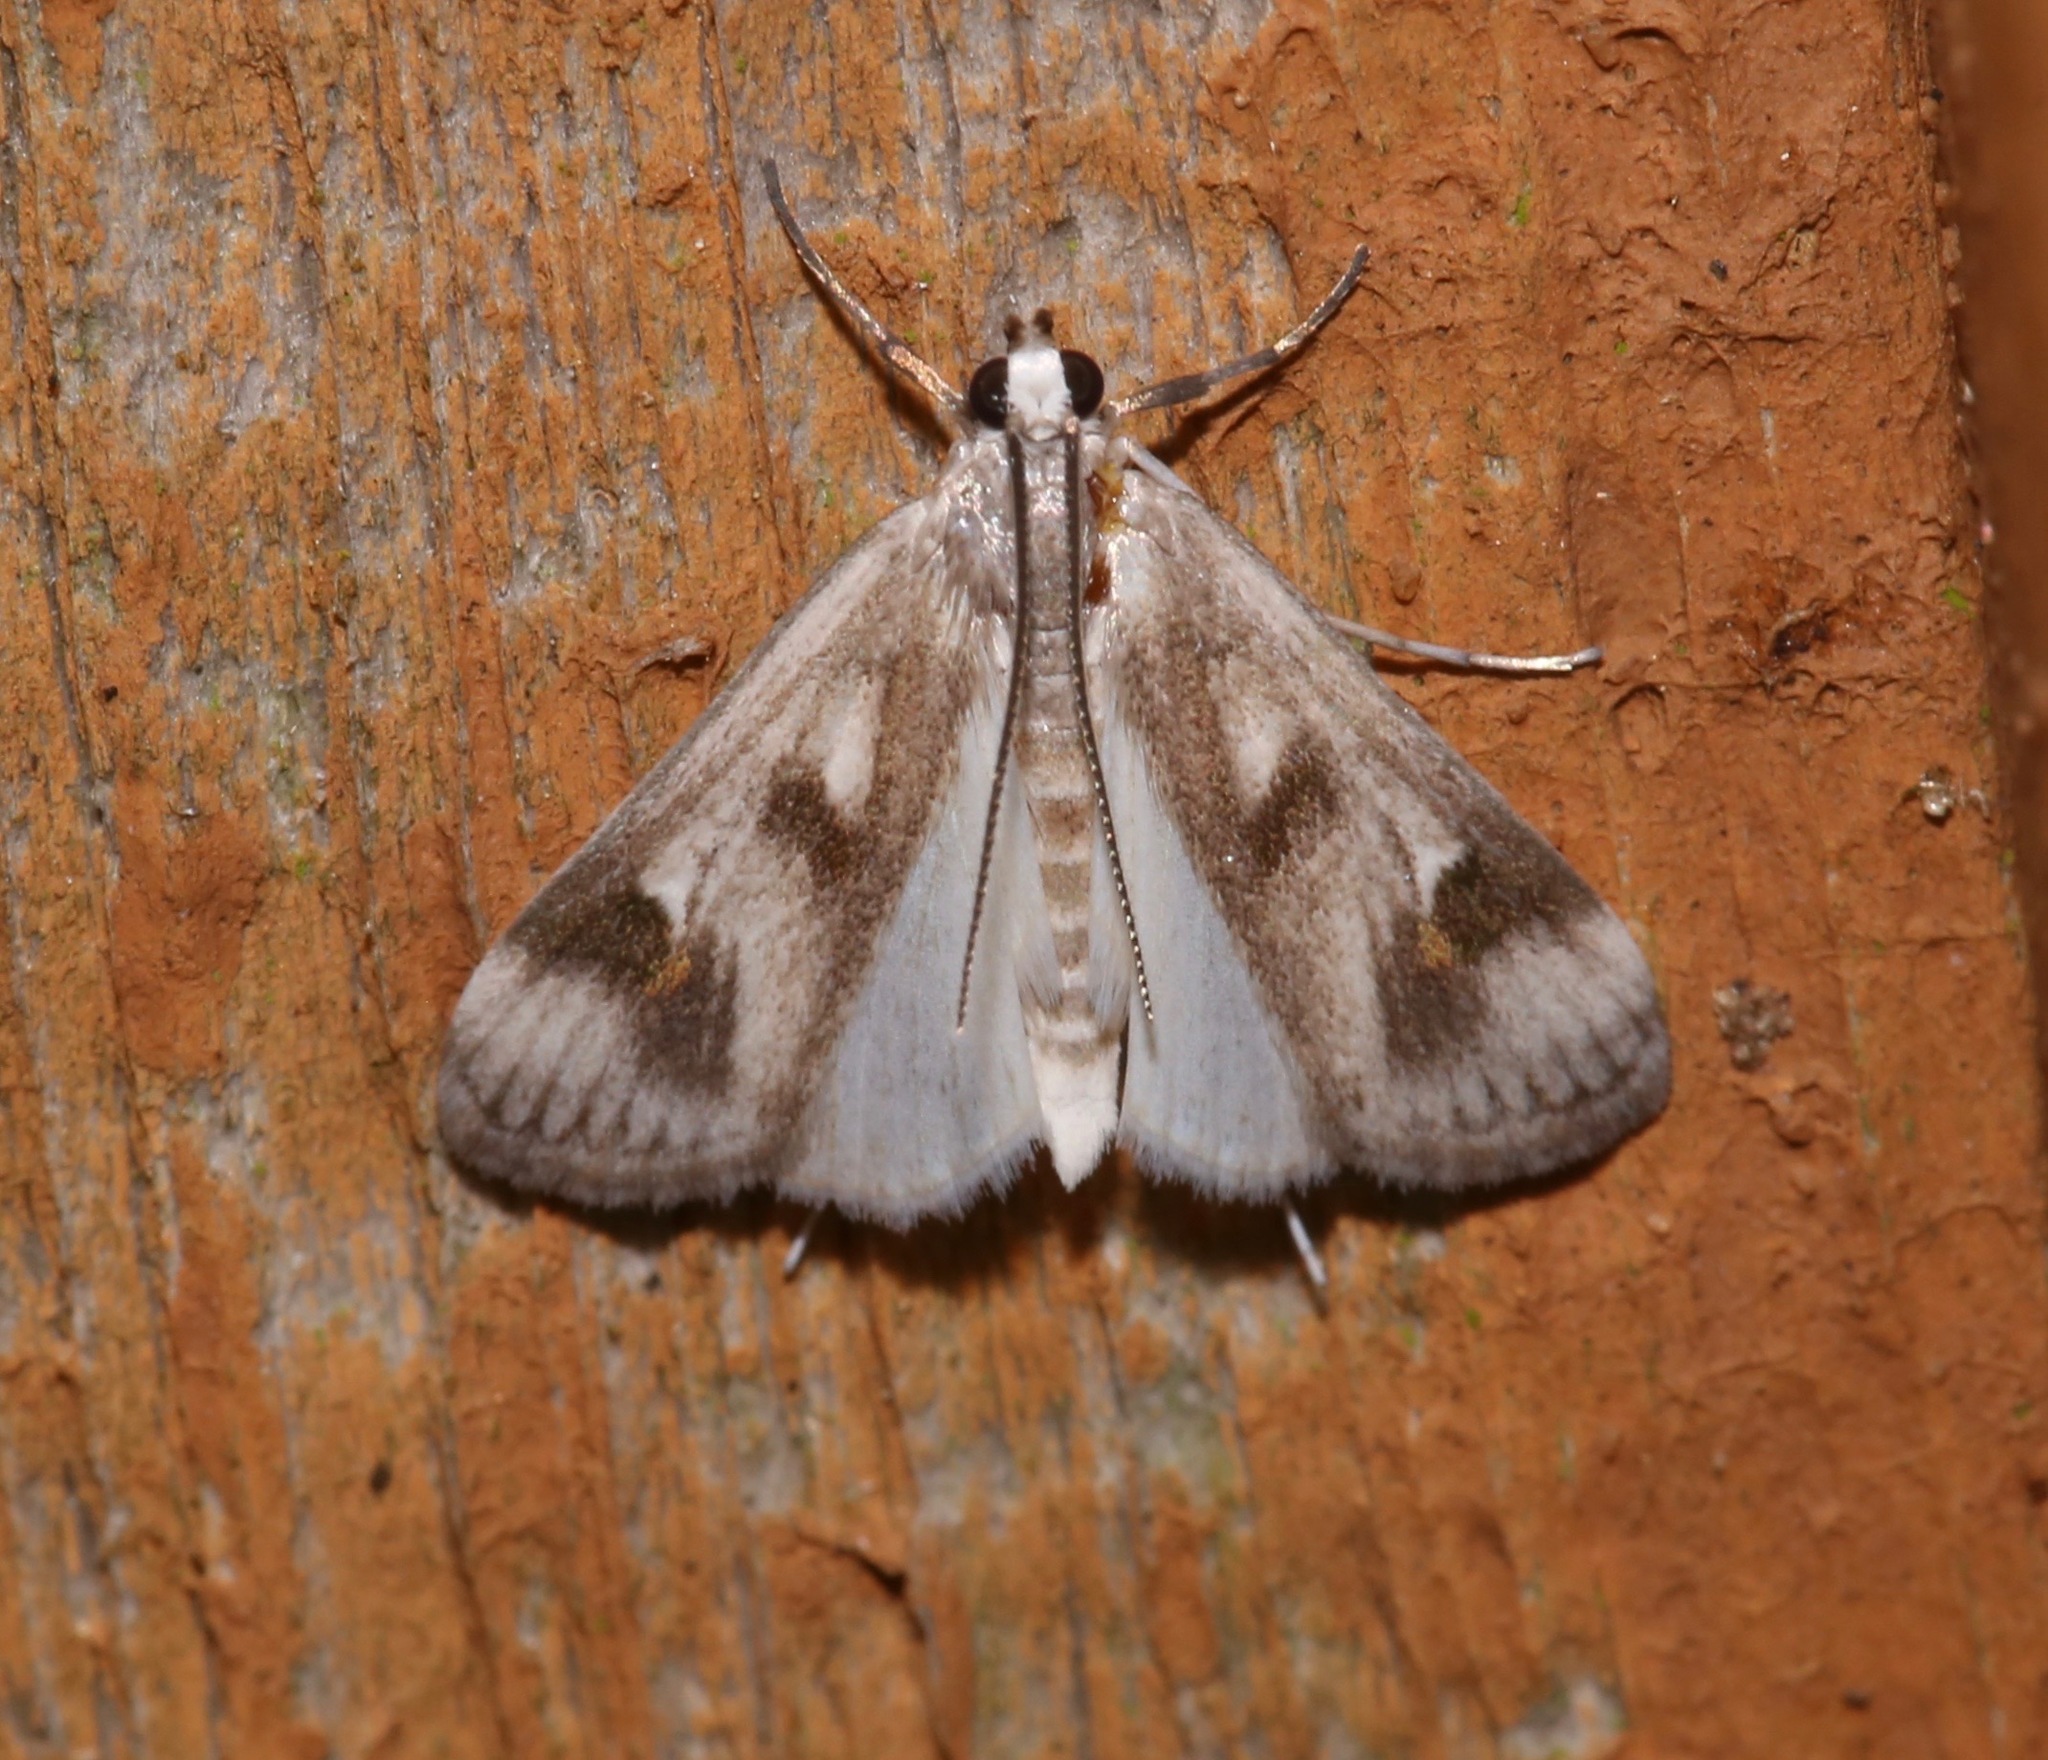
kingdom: Animalia
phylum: Arthropoda
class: Insecta
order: Lepidoptera
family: Crambidae
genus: Parapoynx
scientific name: Parapoynx maculalis
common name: Polymorphic pondweed moth
